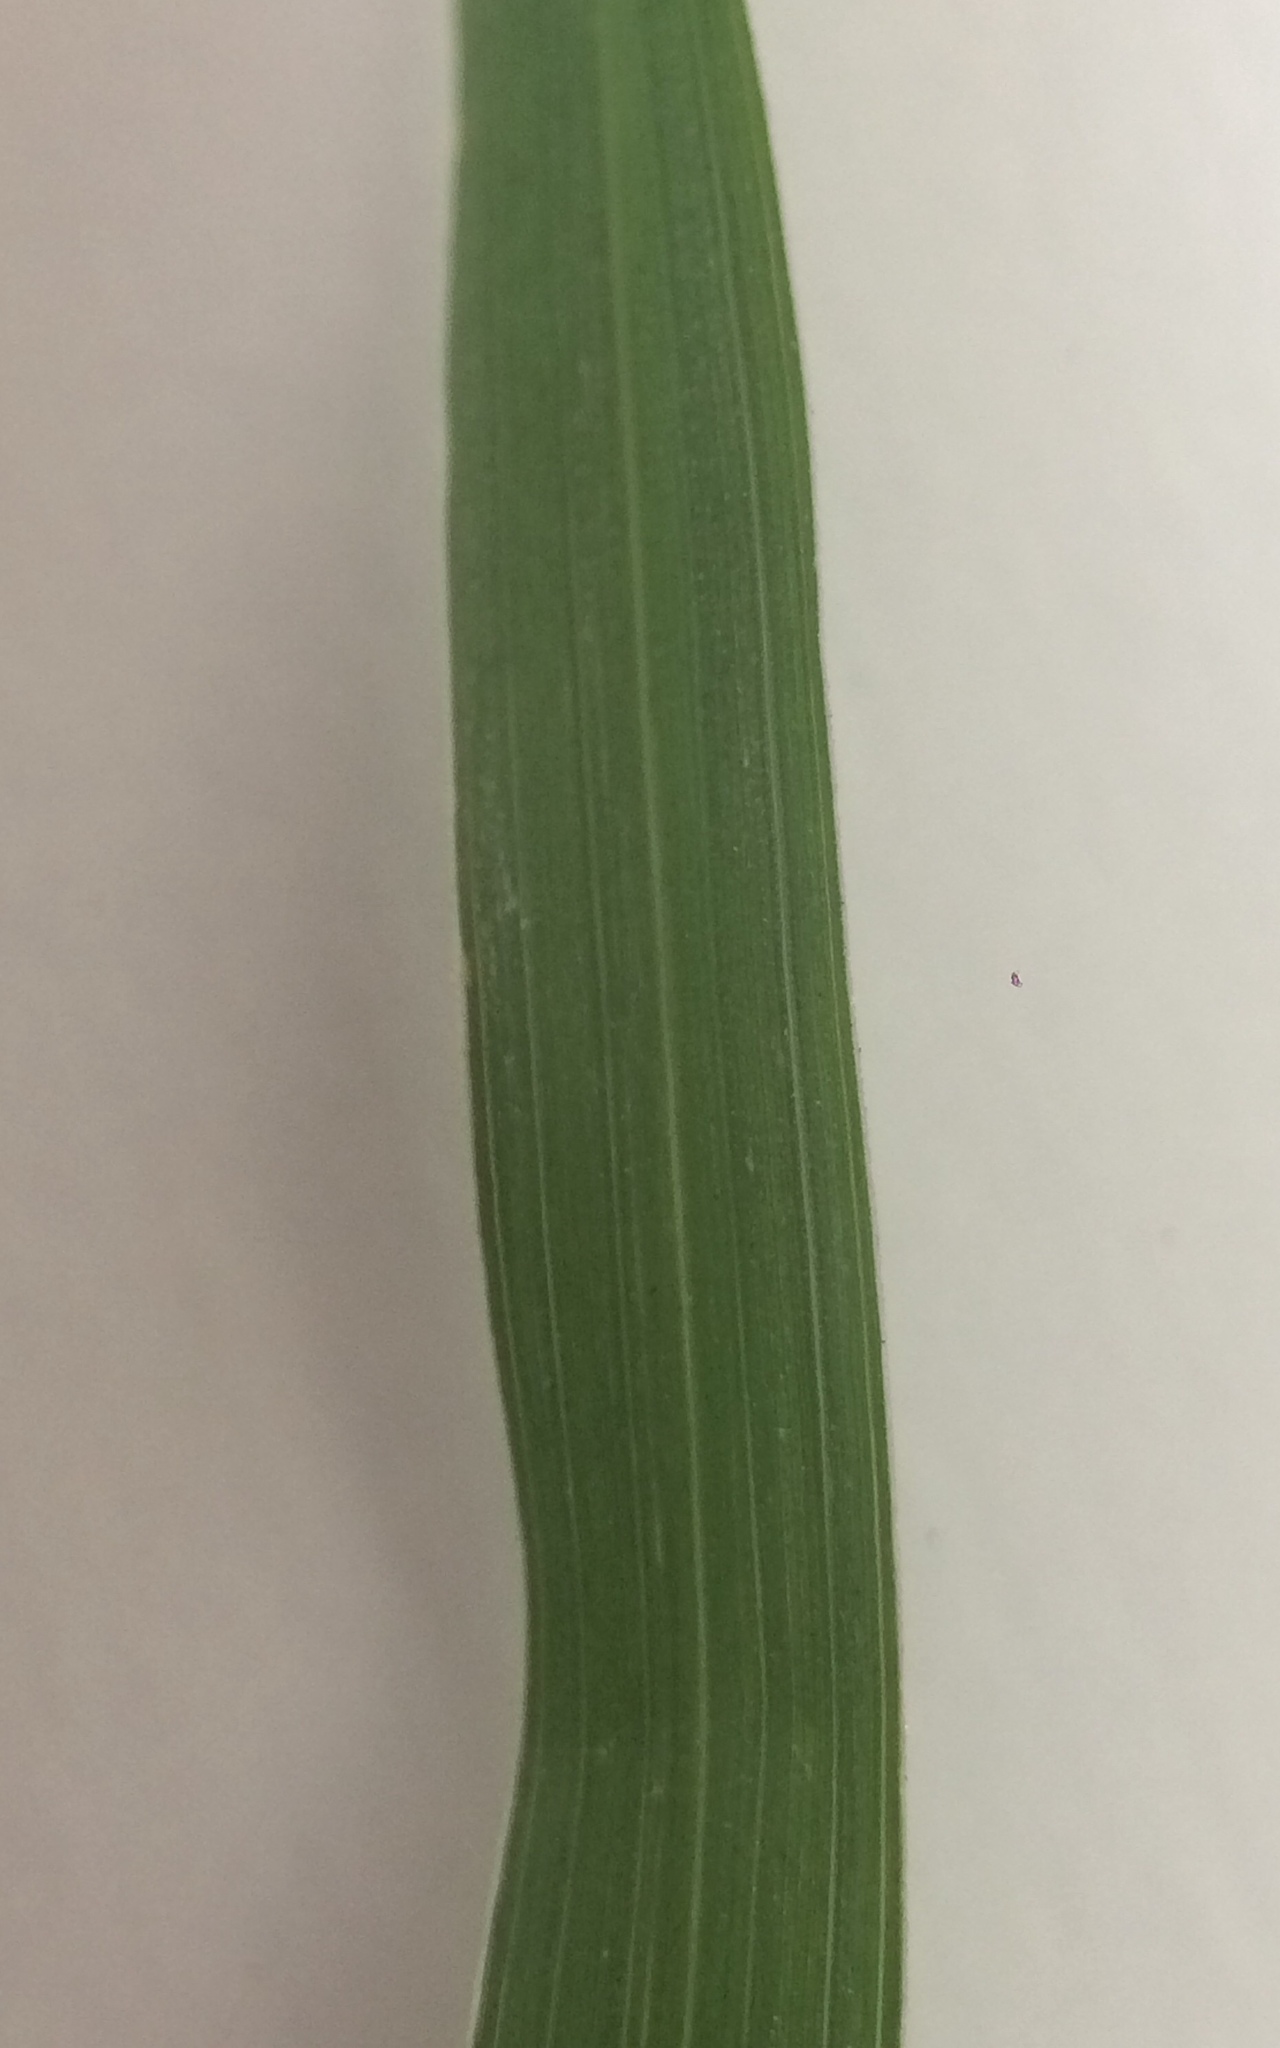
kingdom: Plantae
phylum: Tracheophyta
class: Liliopsida
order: Poales
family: Poaceae
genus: Chloris
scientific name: Chloris barbata
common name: Swollen fingergrass
